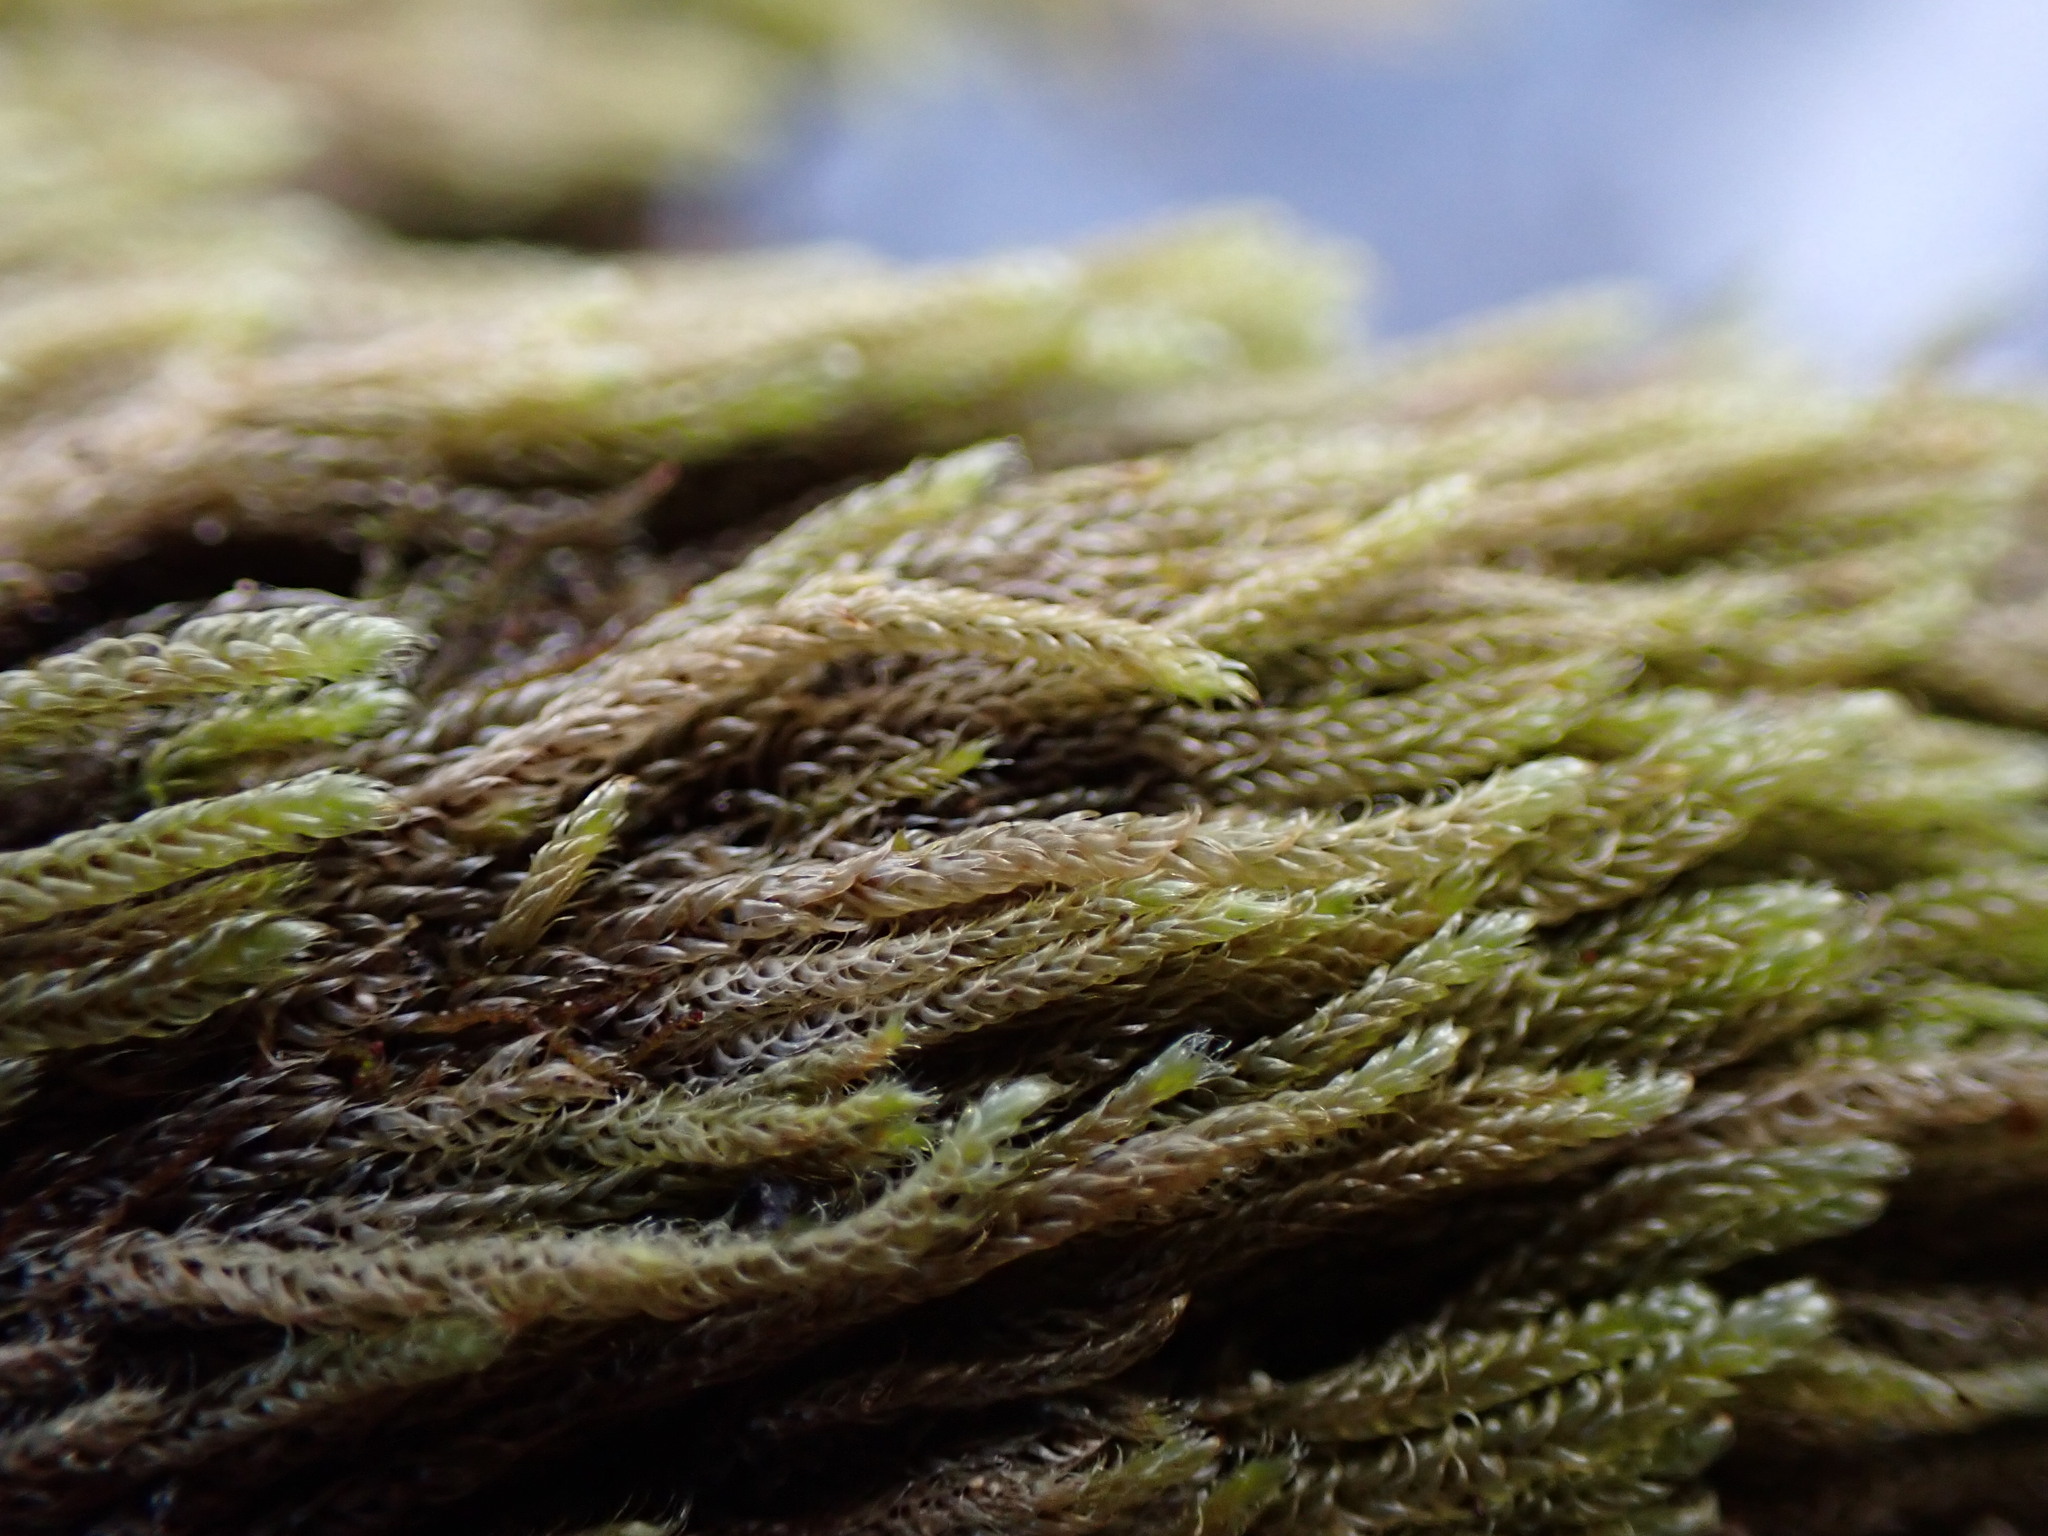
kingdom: Plantae
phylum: Bryophyta
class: Bryopsida
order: Hypnales
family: Pylaisiadelphaceae
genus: Trochophyllohypnum
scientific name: Trochophyllohypnum circinale
